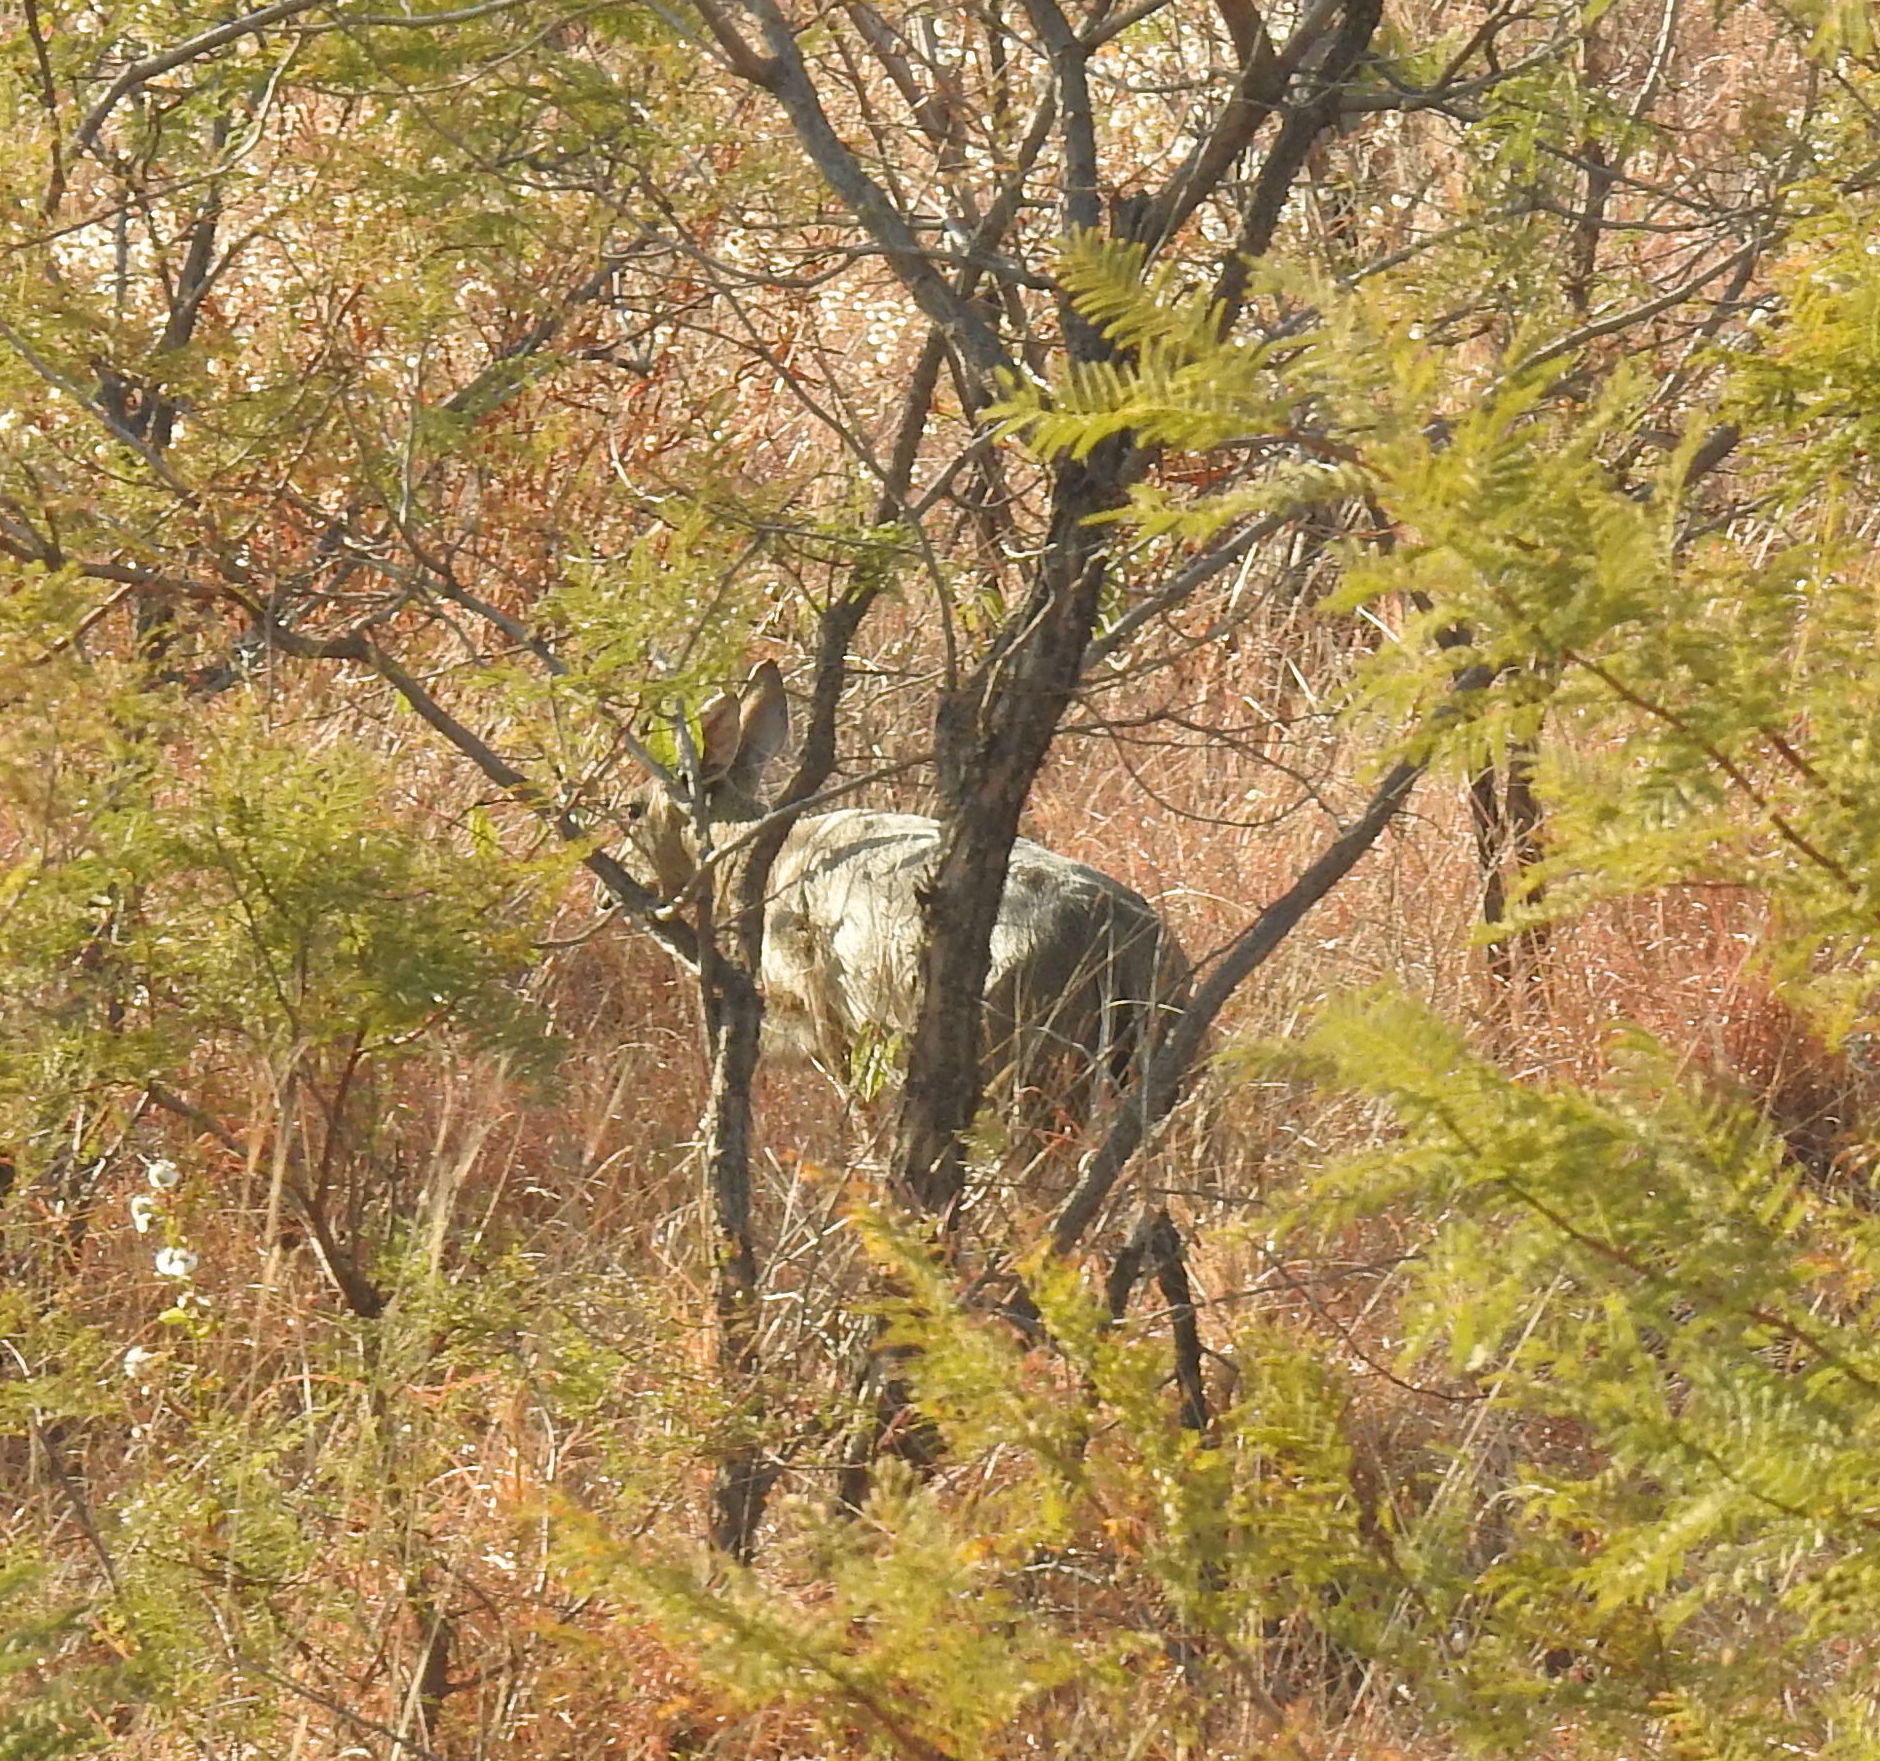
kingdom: Animalia
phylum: Chordata
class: Mammalia
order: Artiodactyla
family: Bovidae
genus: Sylvicapra
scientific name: Sylvicapra grimmia
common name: Bush duiker
